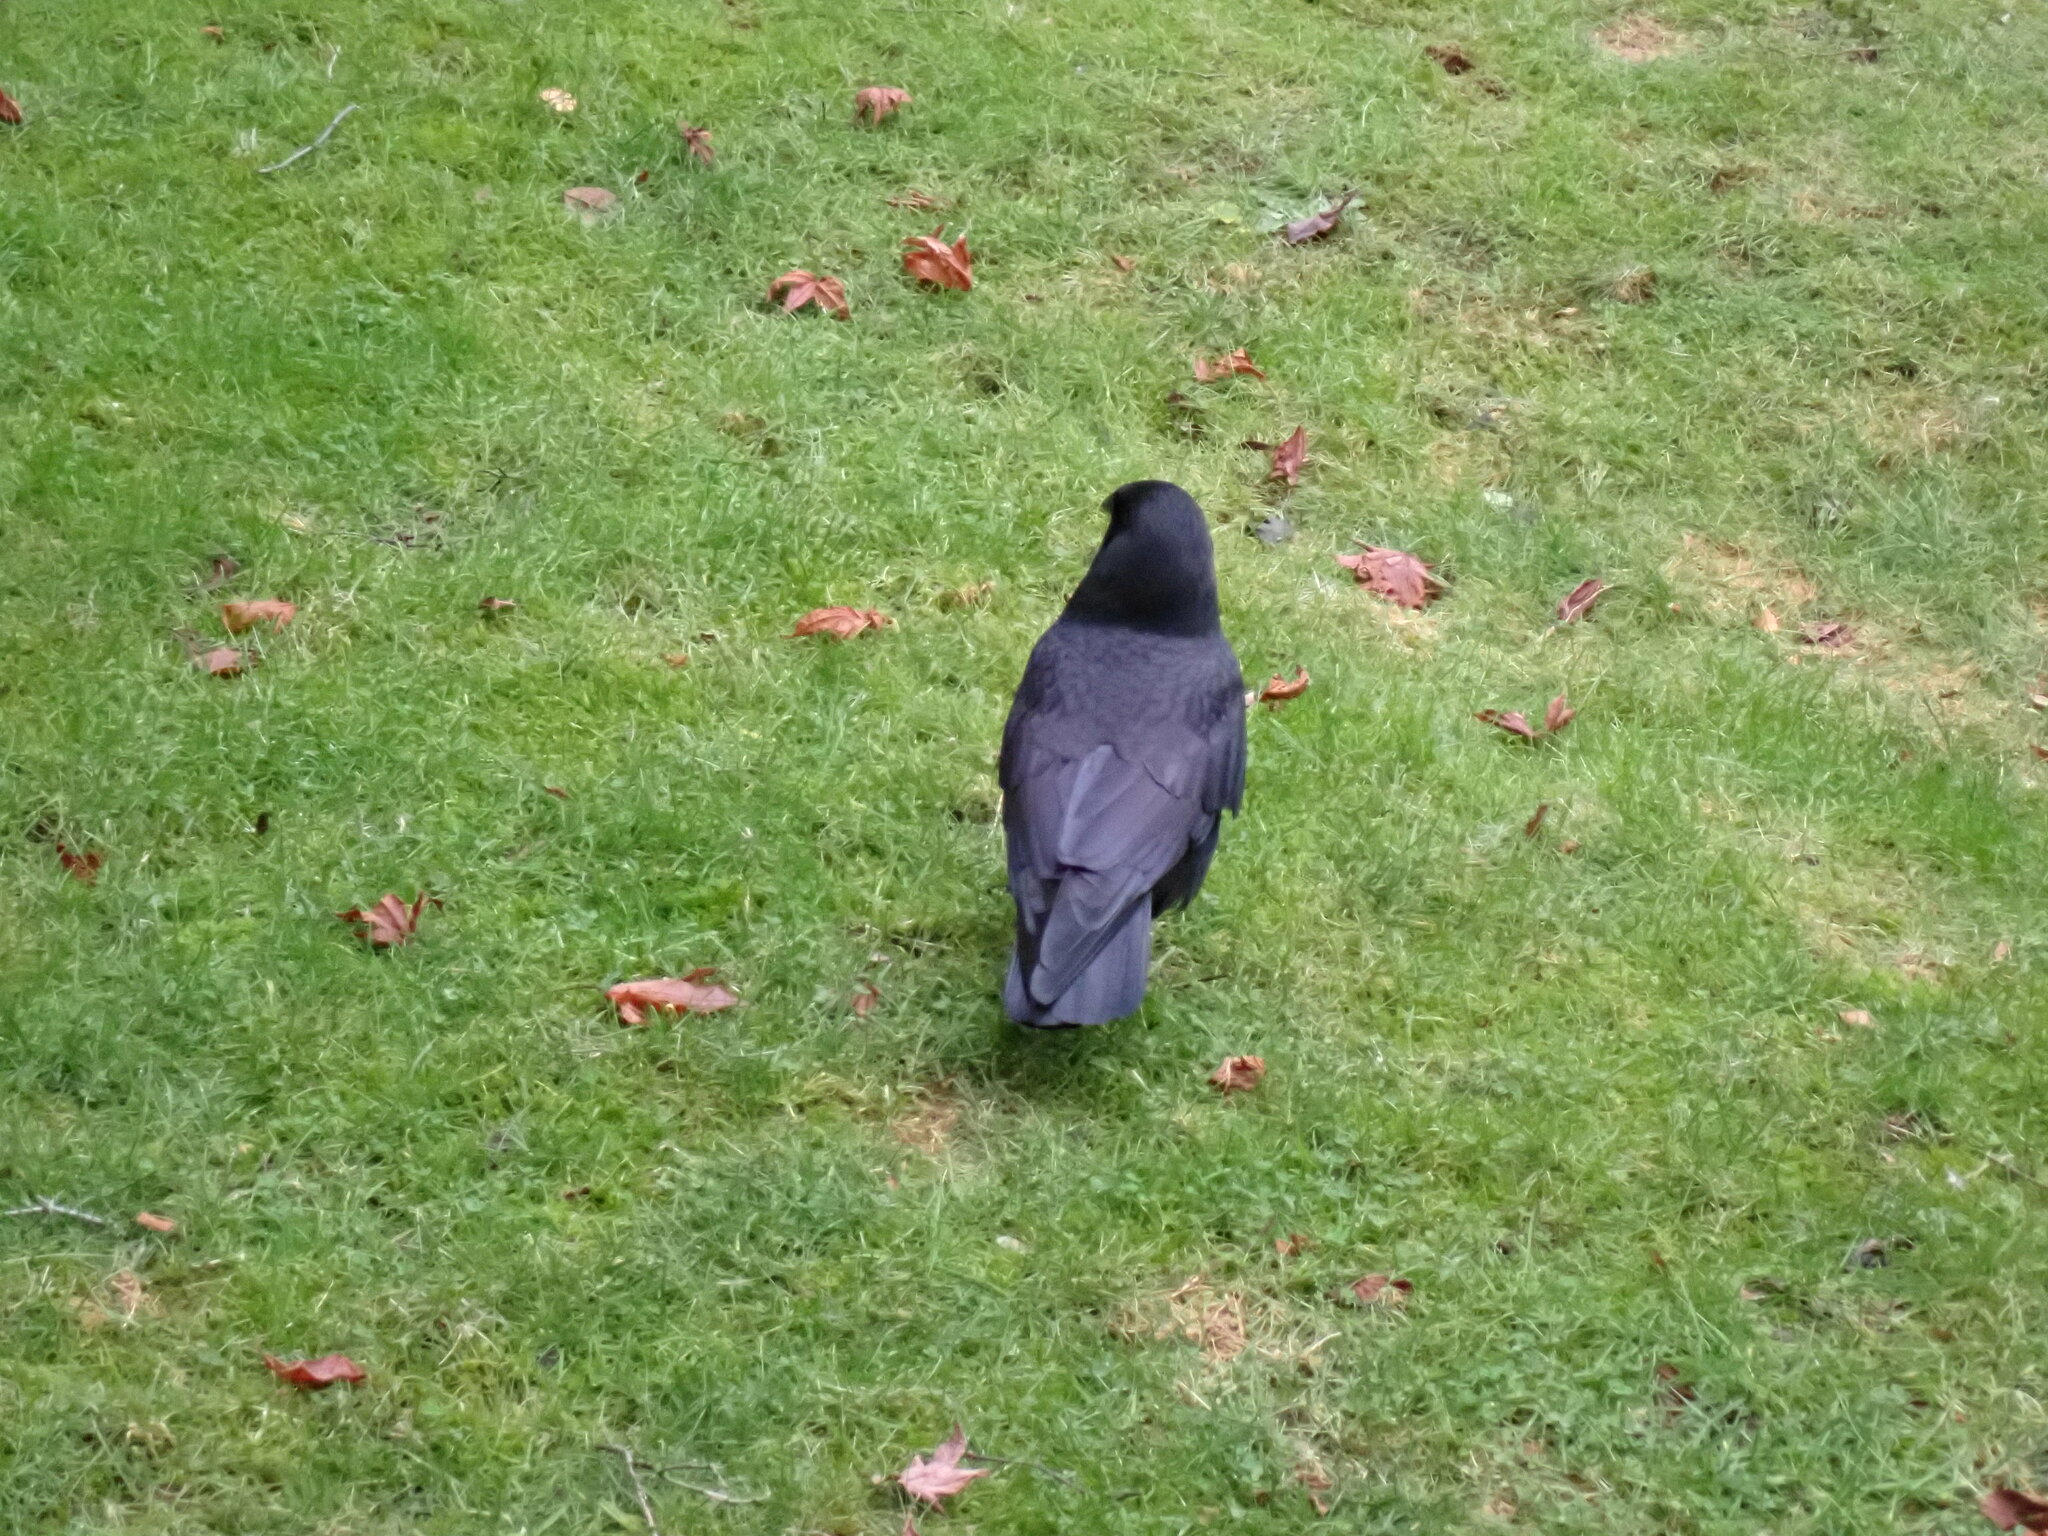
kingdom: Animalia
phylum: Chordata
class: Aves
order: Passeriformes
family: Corvidae
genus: Corvus
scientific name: Corvus brachyrhynchos
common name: American crow
